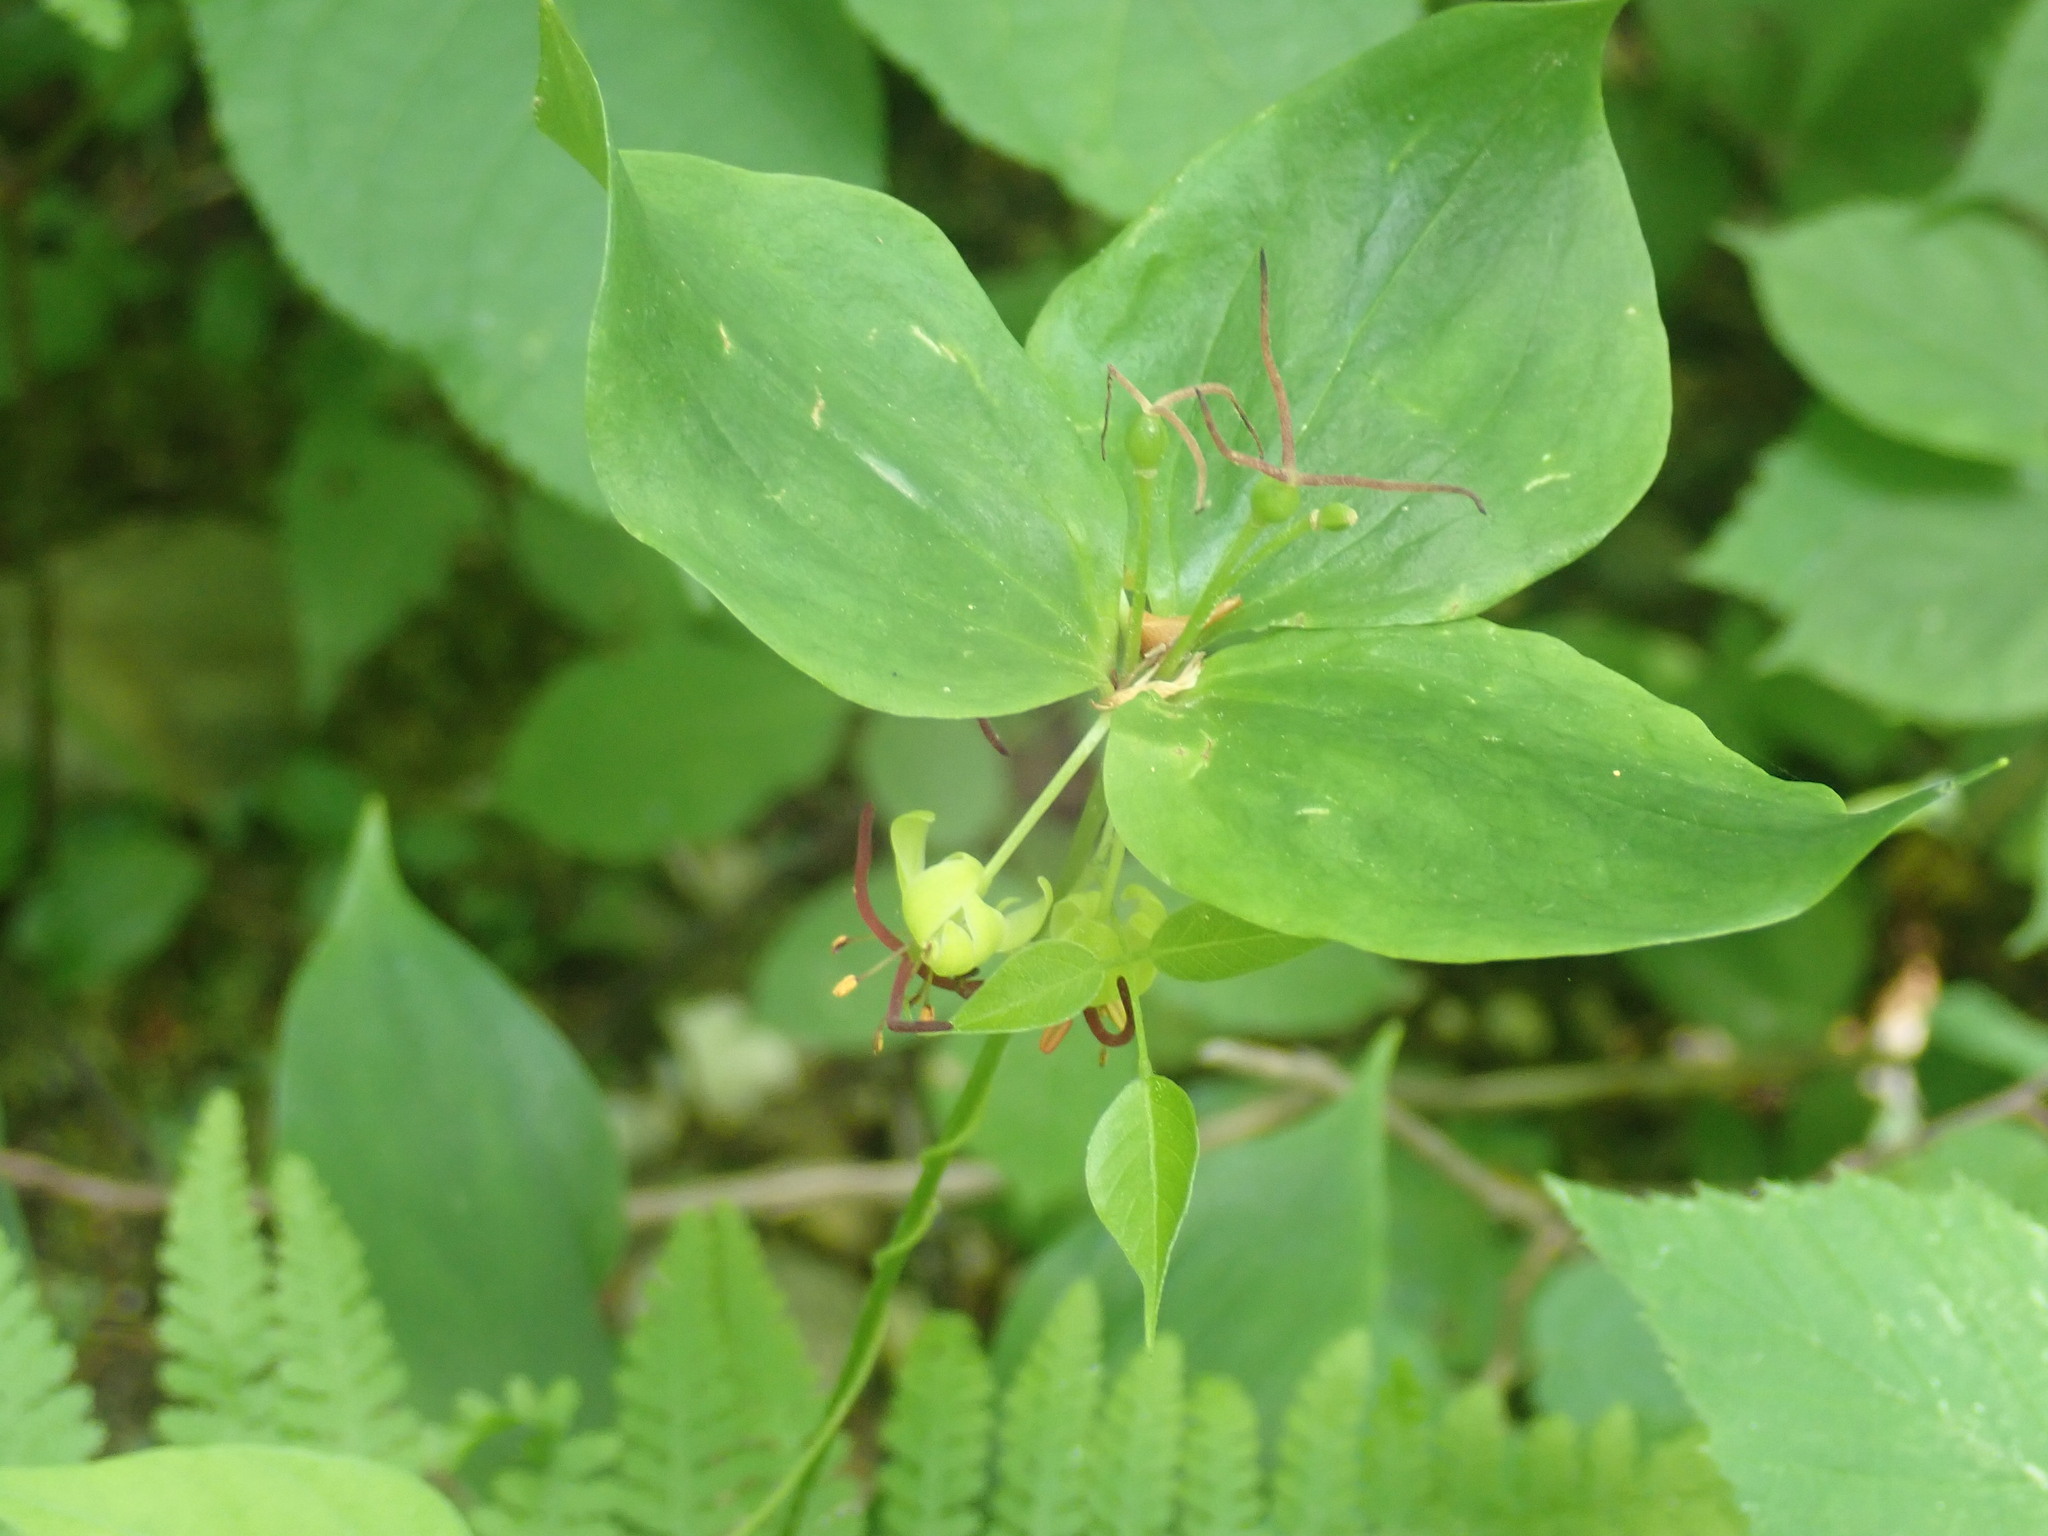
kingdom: Plantae
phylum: Tracheophyta
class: Liliopsida
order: Liliales
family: Liliaceae
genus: Medeola
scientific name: Medeola virginiana
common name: Indian cucumber-root
